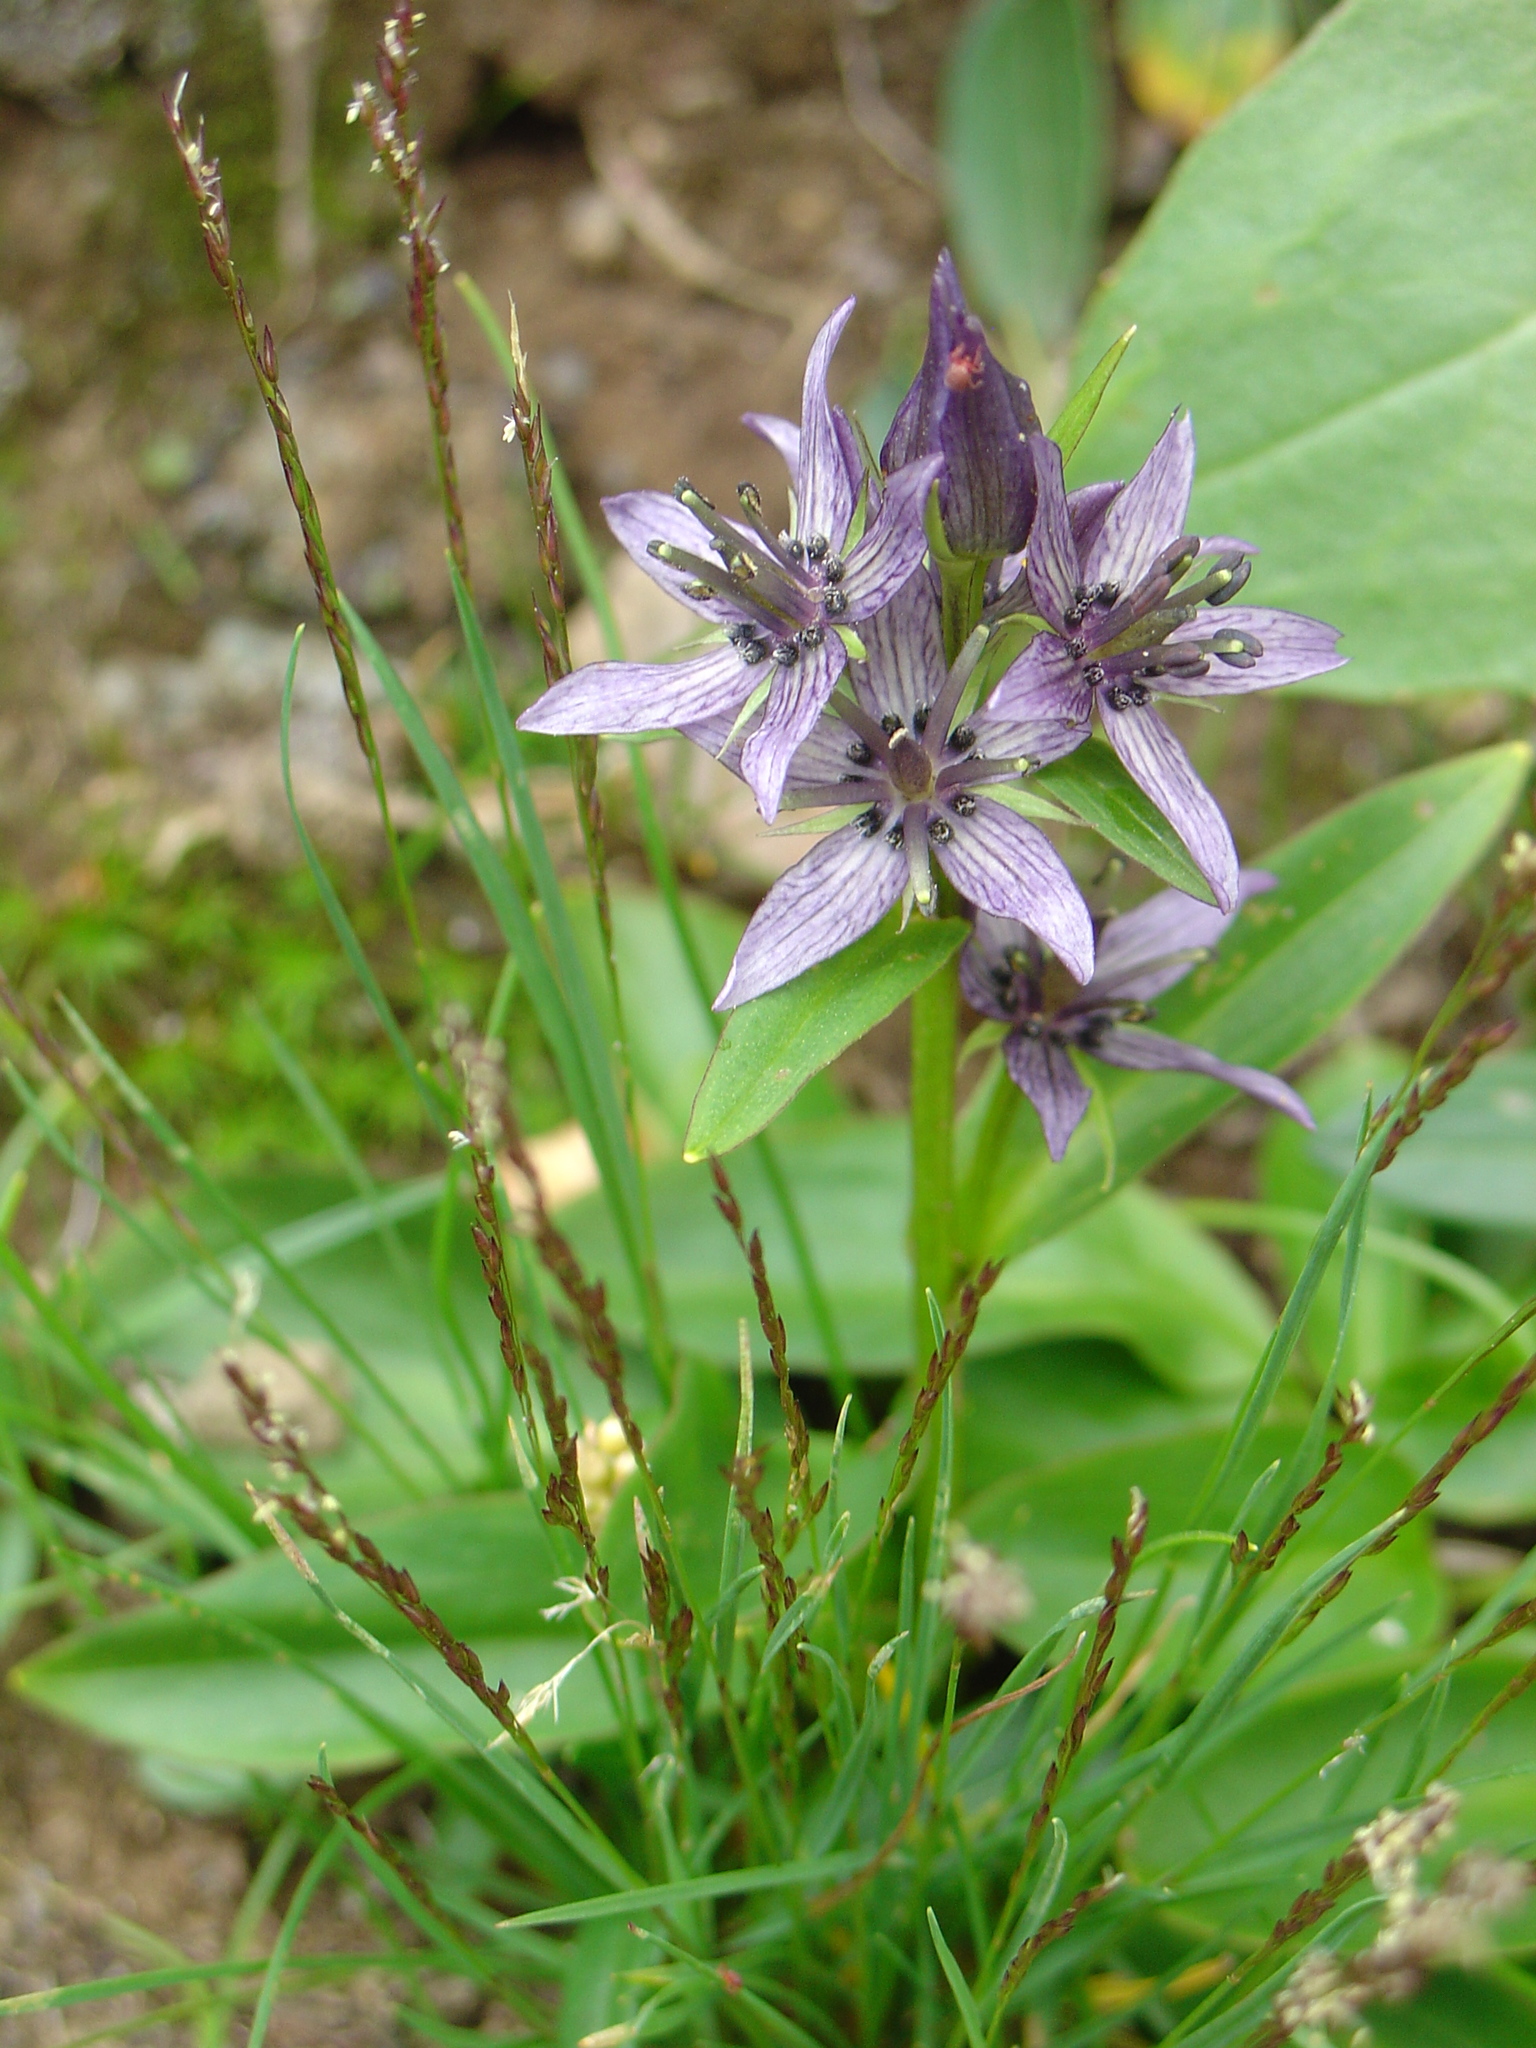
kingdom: Plantae
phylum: Tracheophyta
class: Magnoliopsida
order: Gentianales
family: Gentianaceae
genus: Swertia
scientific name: Swertia perennis
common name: Alpine bog swertia
